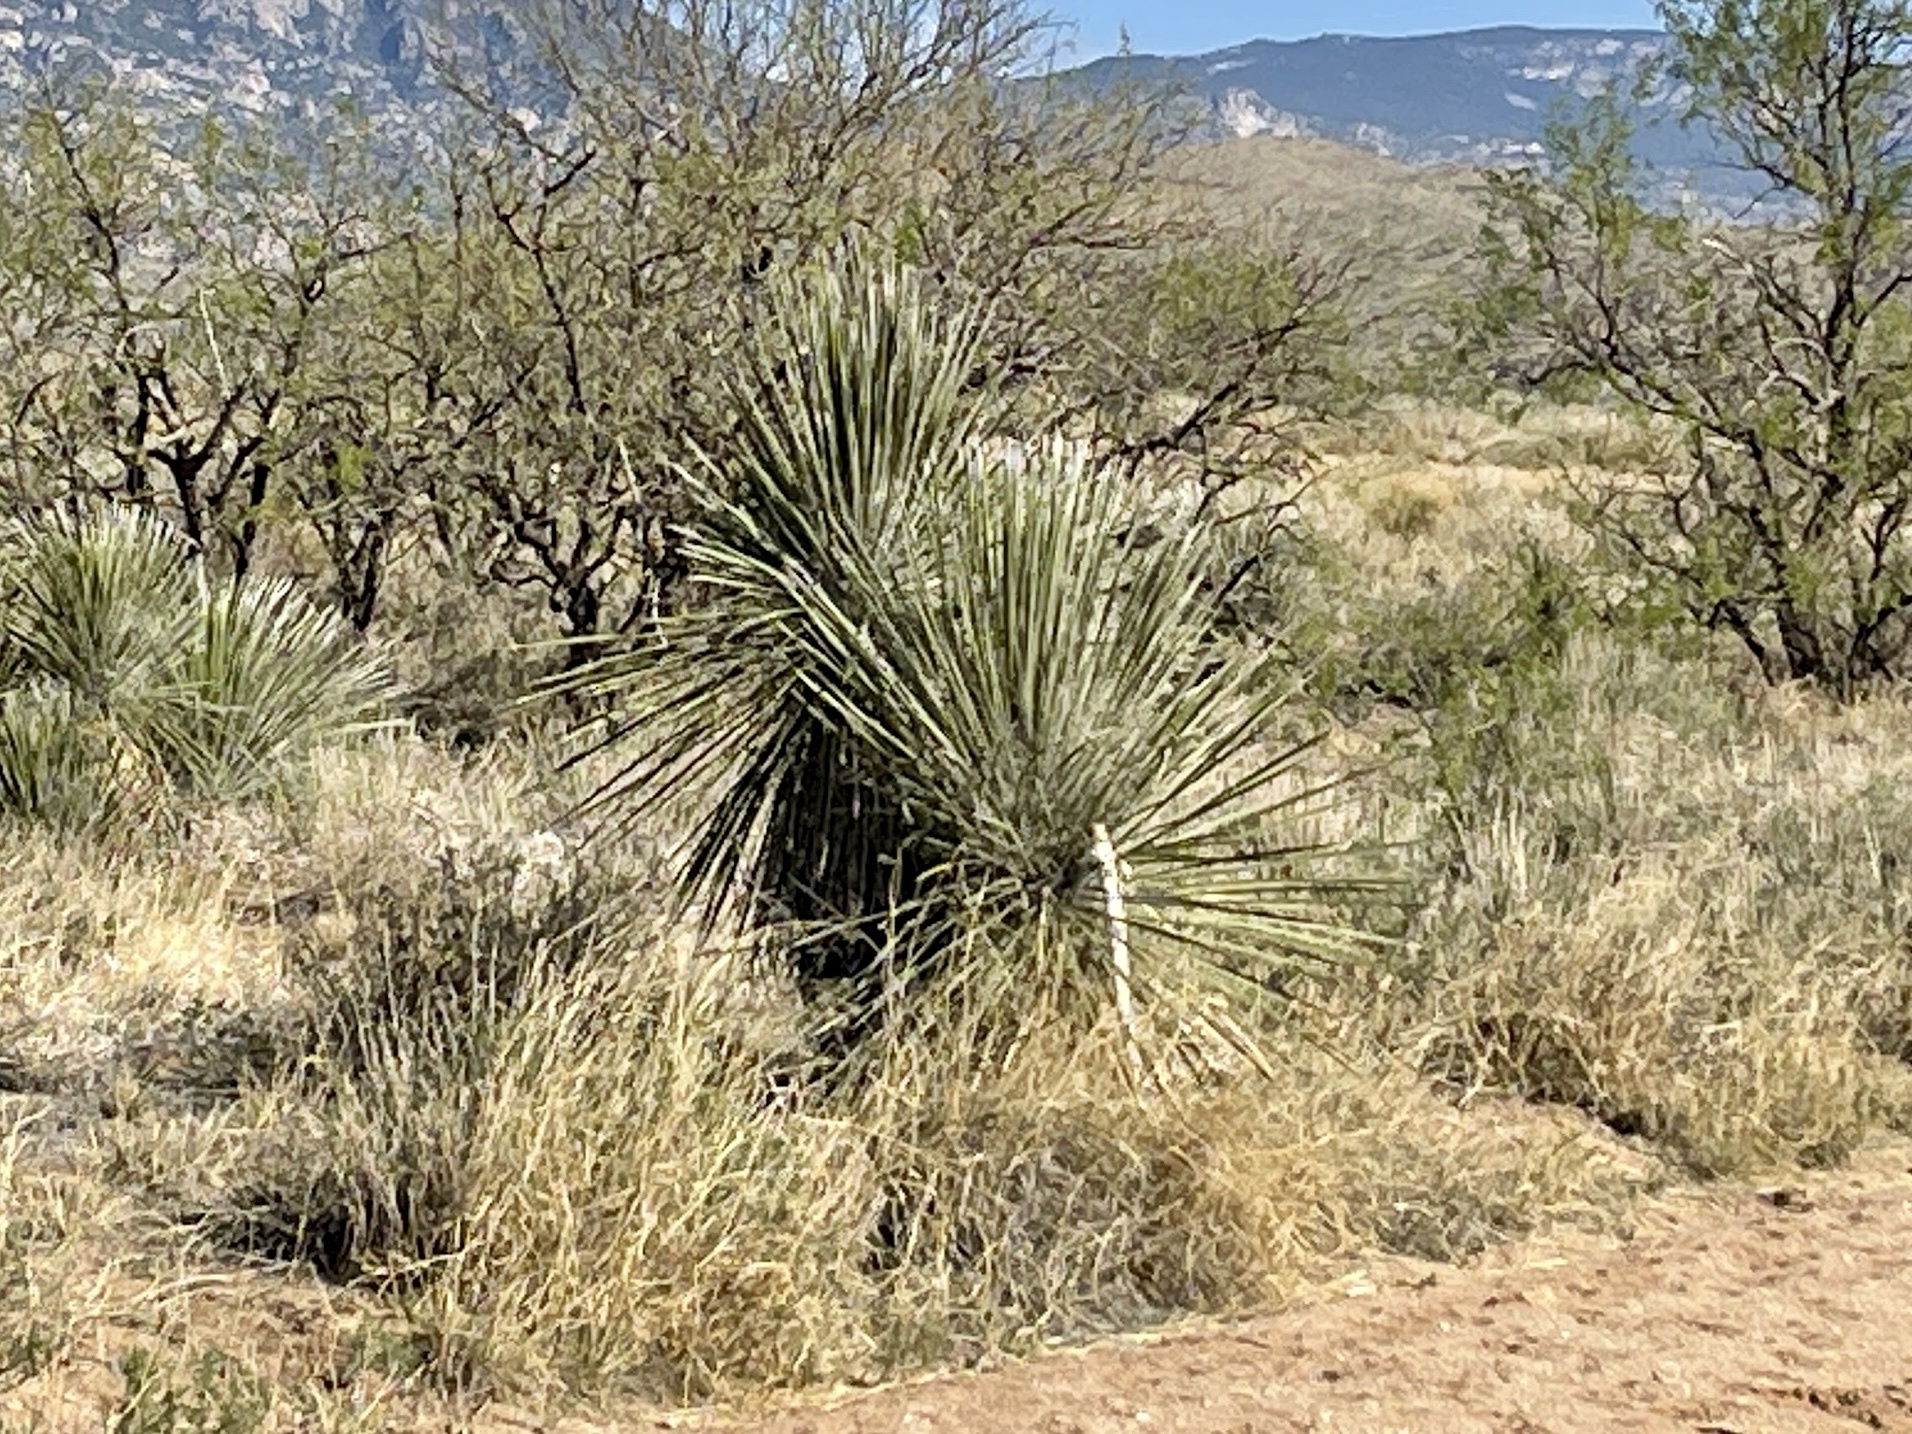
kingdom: Plantae
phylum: Tracheophyta
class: Liliopsida
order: Asparagales
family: Asparagaceae
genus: Yucca
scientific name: Yucca elata
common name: Palmella
